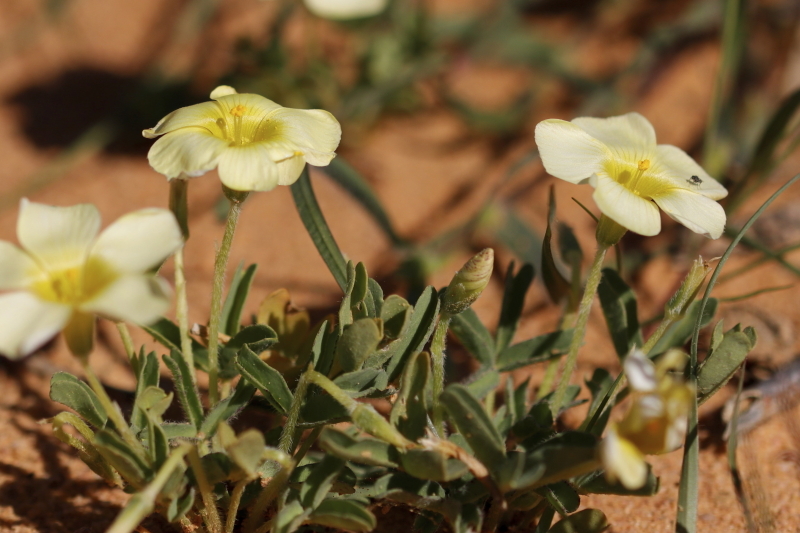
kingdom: Plantae
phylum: Tracheophyta
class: Magnoliopsida
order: Oxalidales
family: Oxalidaceae
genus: Oxalis
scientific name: Oxalis obtusa
